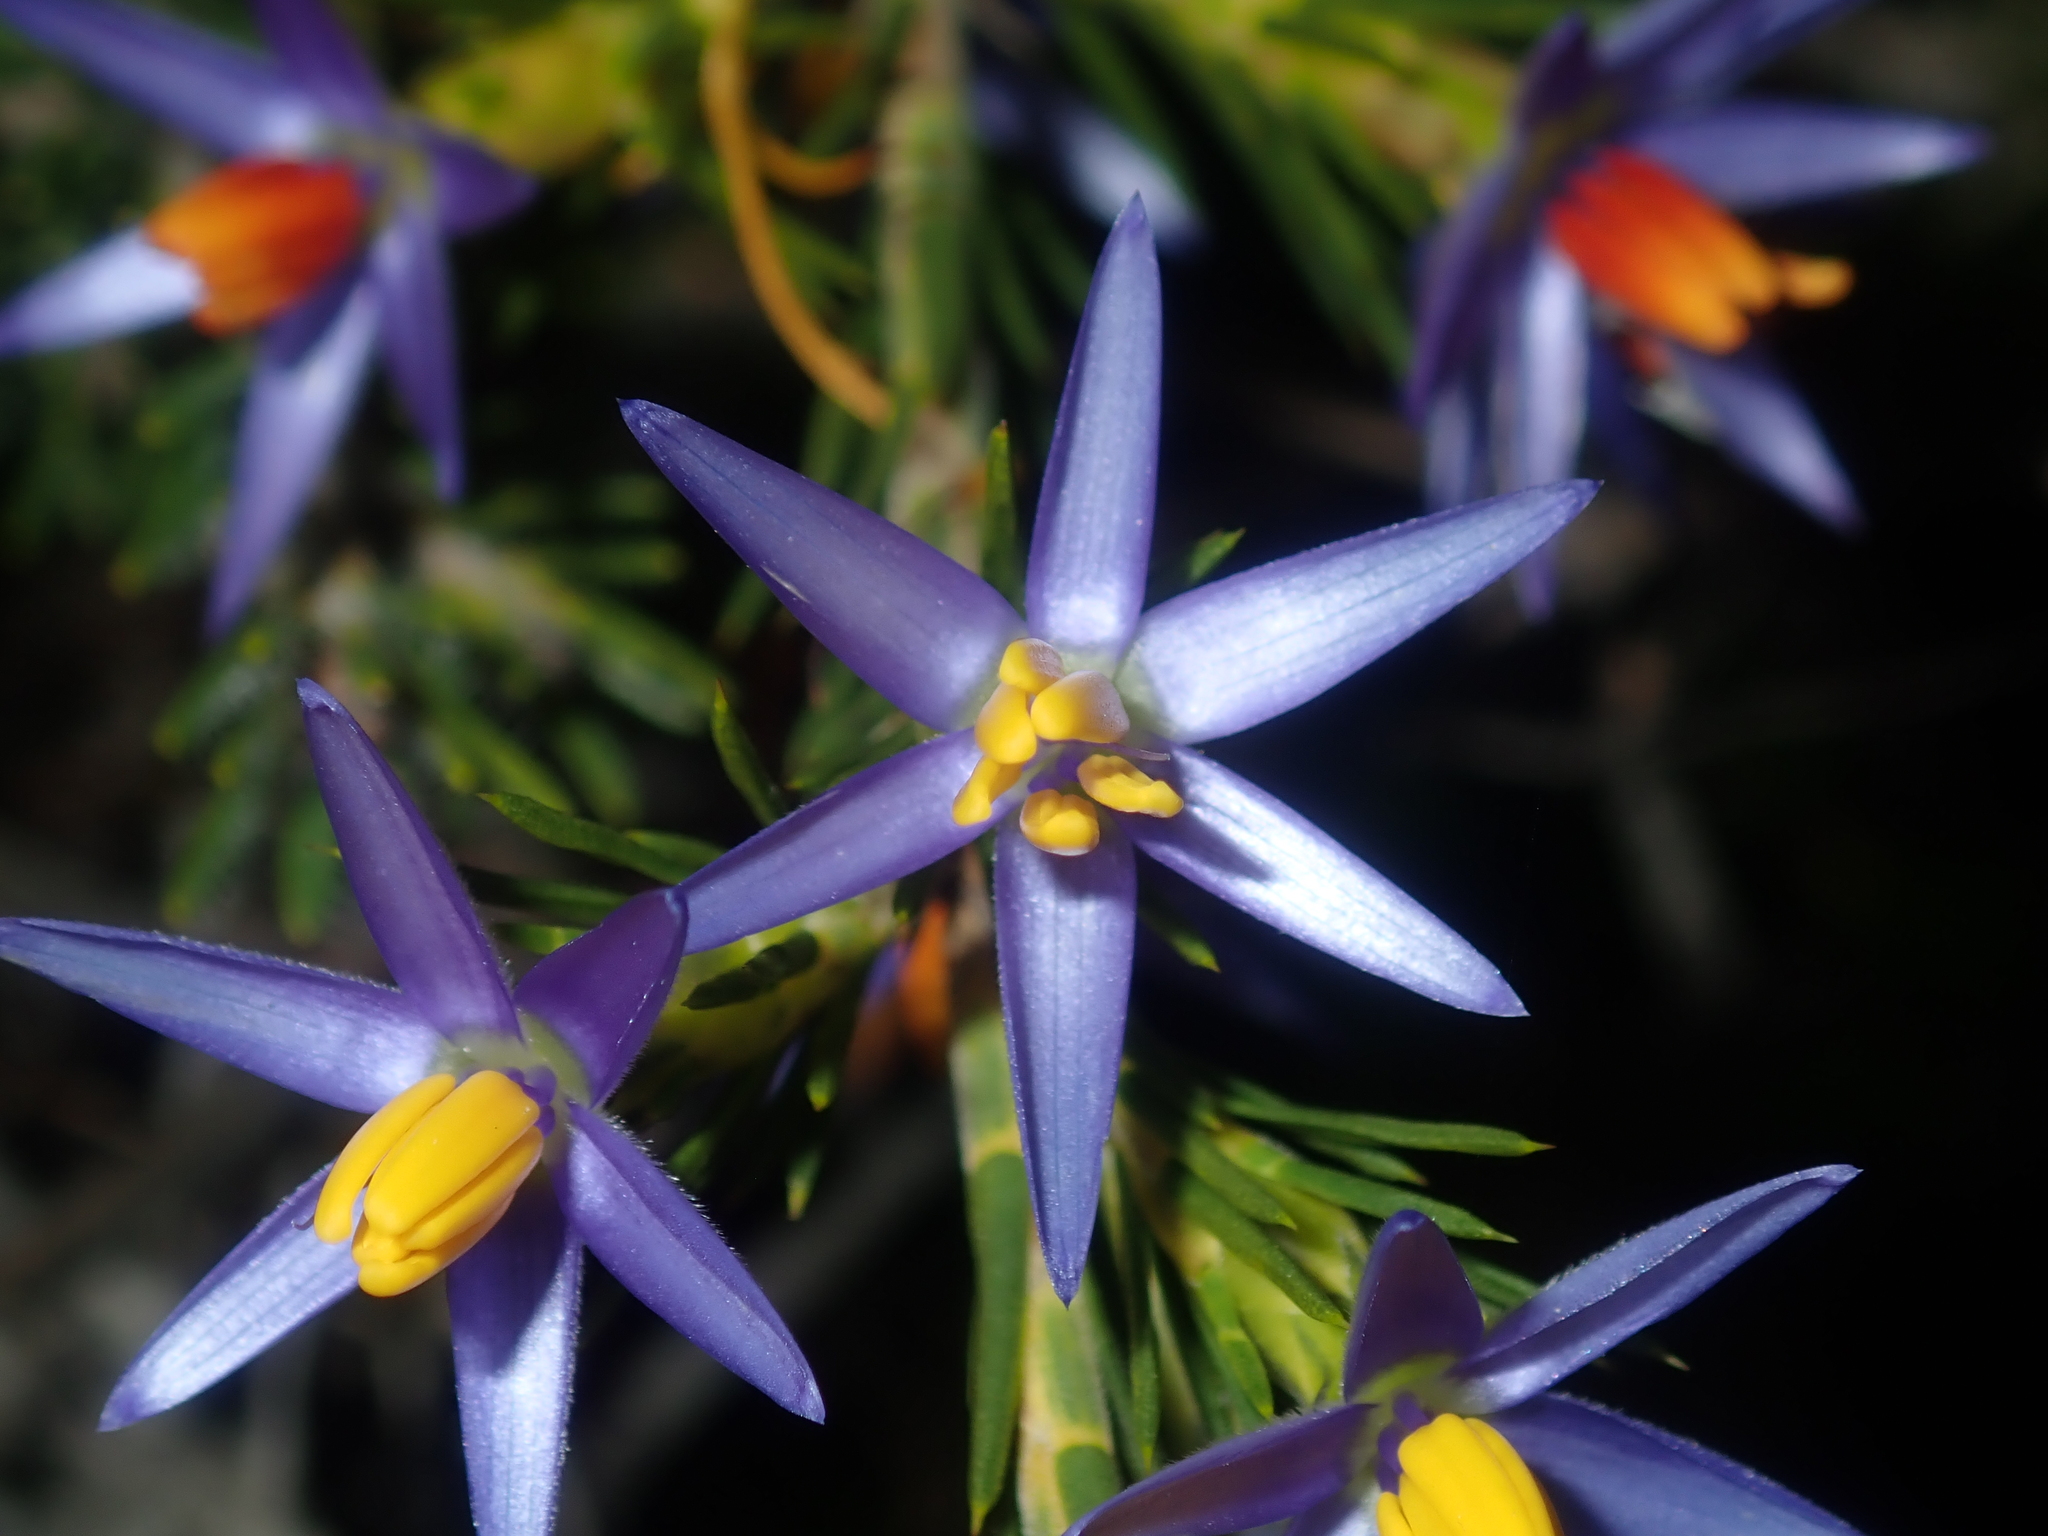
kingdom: Plantae
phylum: Tracheophyta
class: Liliopsida
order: Arecales
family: Dasypogonaceae
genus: Calectasia
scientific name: Calectasia narragara
